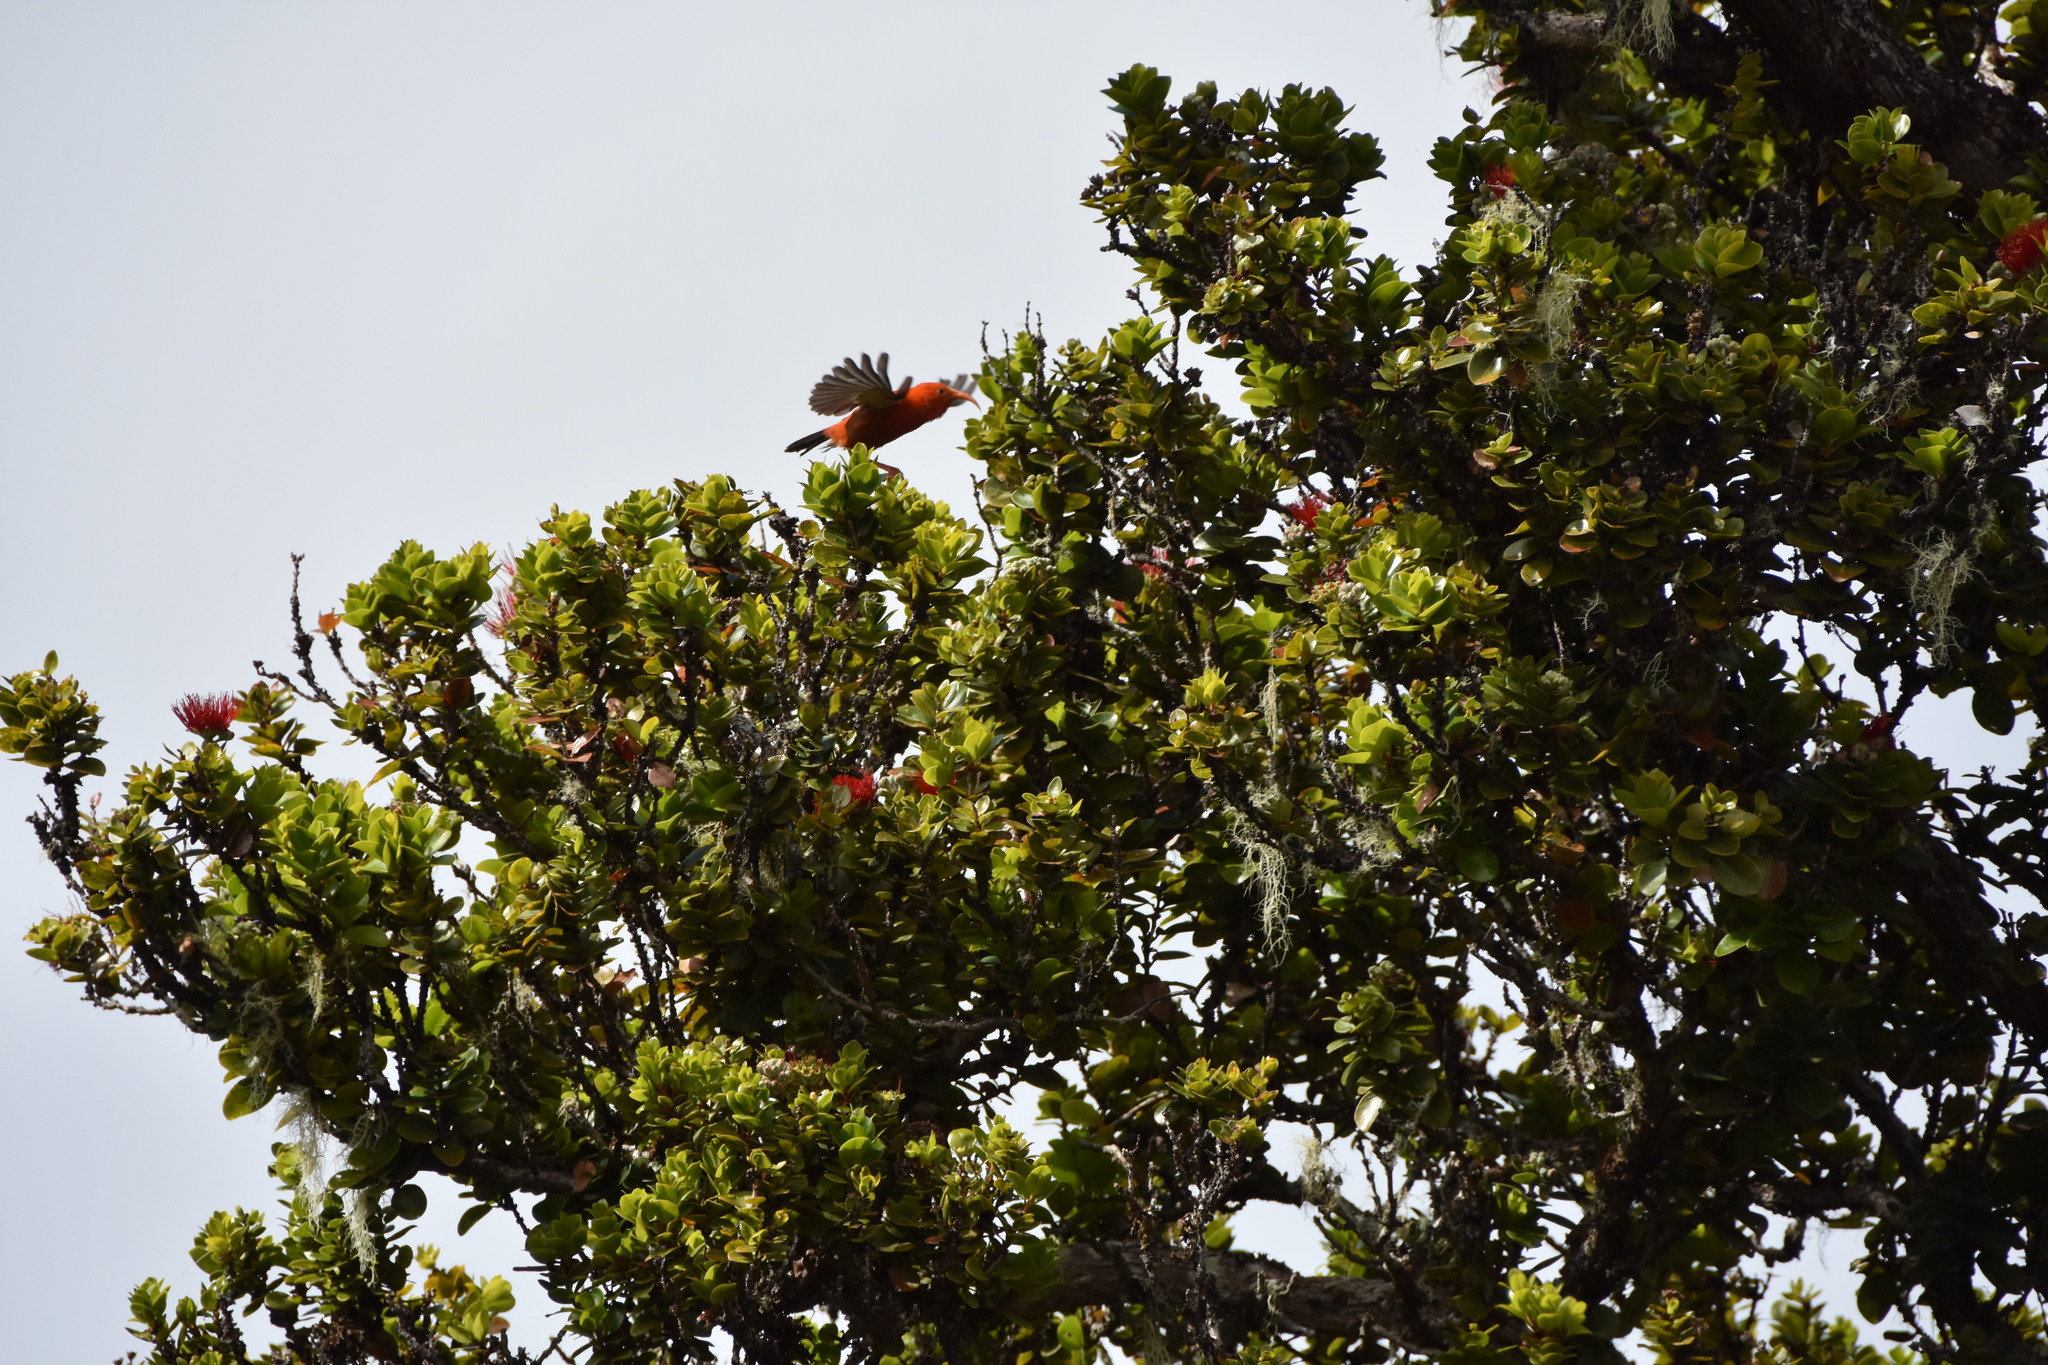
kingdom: Animalia
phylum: Chordata
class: Aves
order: Passeriformes
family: Fringillidae
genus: Vestiaria
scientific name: Vestiaria coccinea
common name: Iiwi
